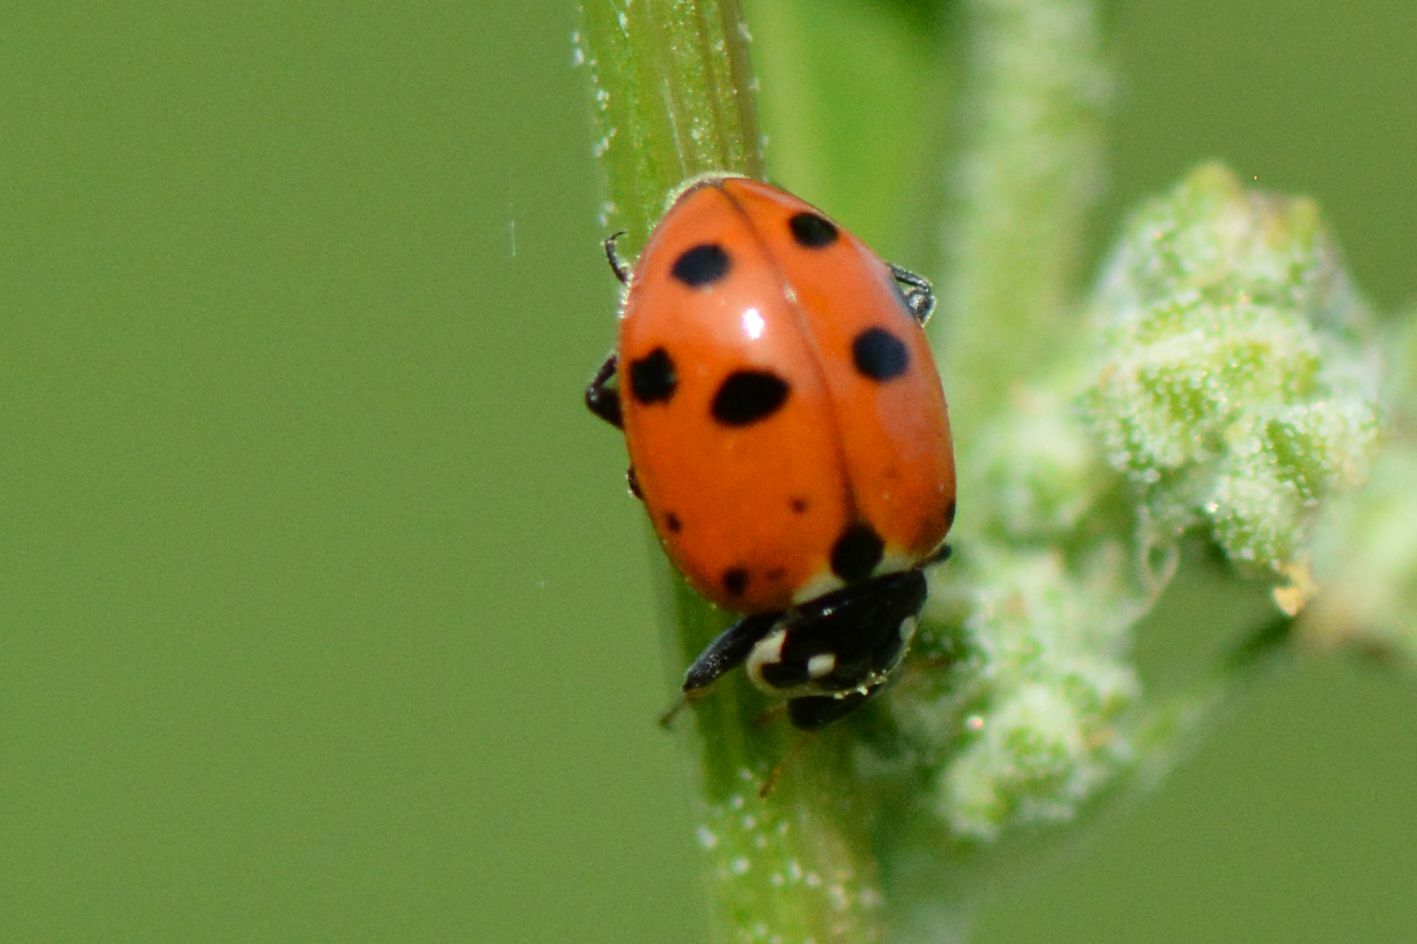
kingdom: Animalia
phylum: Arthropoda
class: Insecta
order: Coleoptera
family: Coccinellidae
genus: Hippodamia
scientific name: Hippodamia variegata
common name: Ladybird beetle
